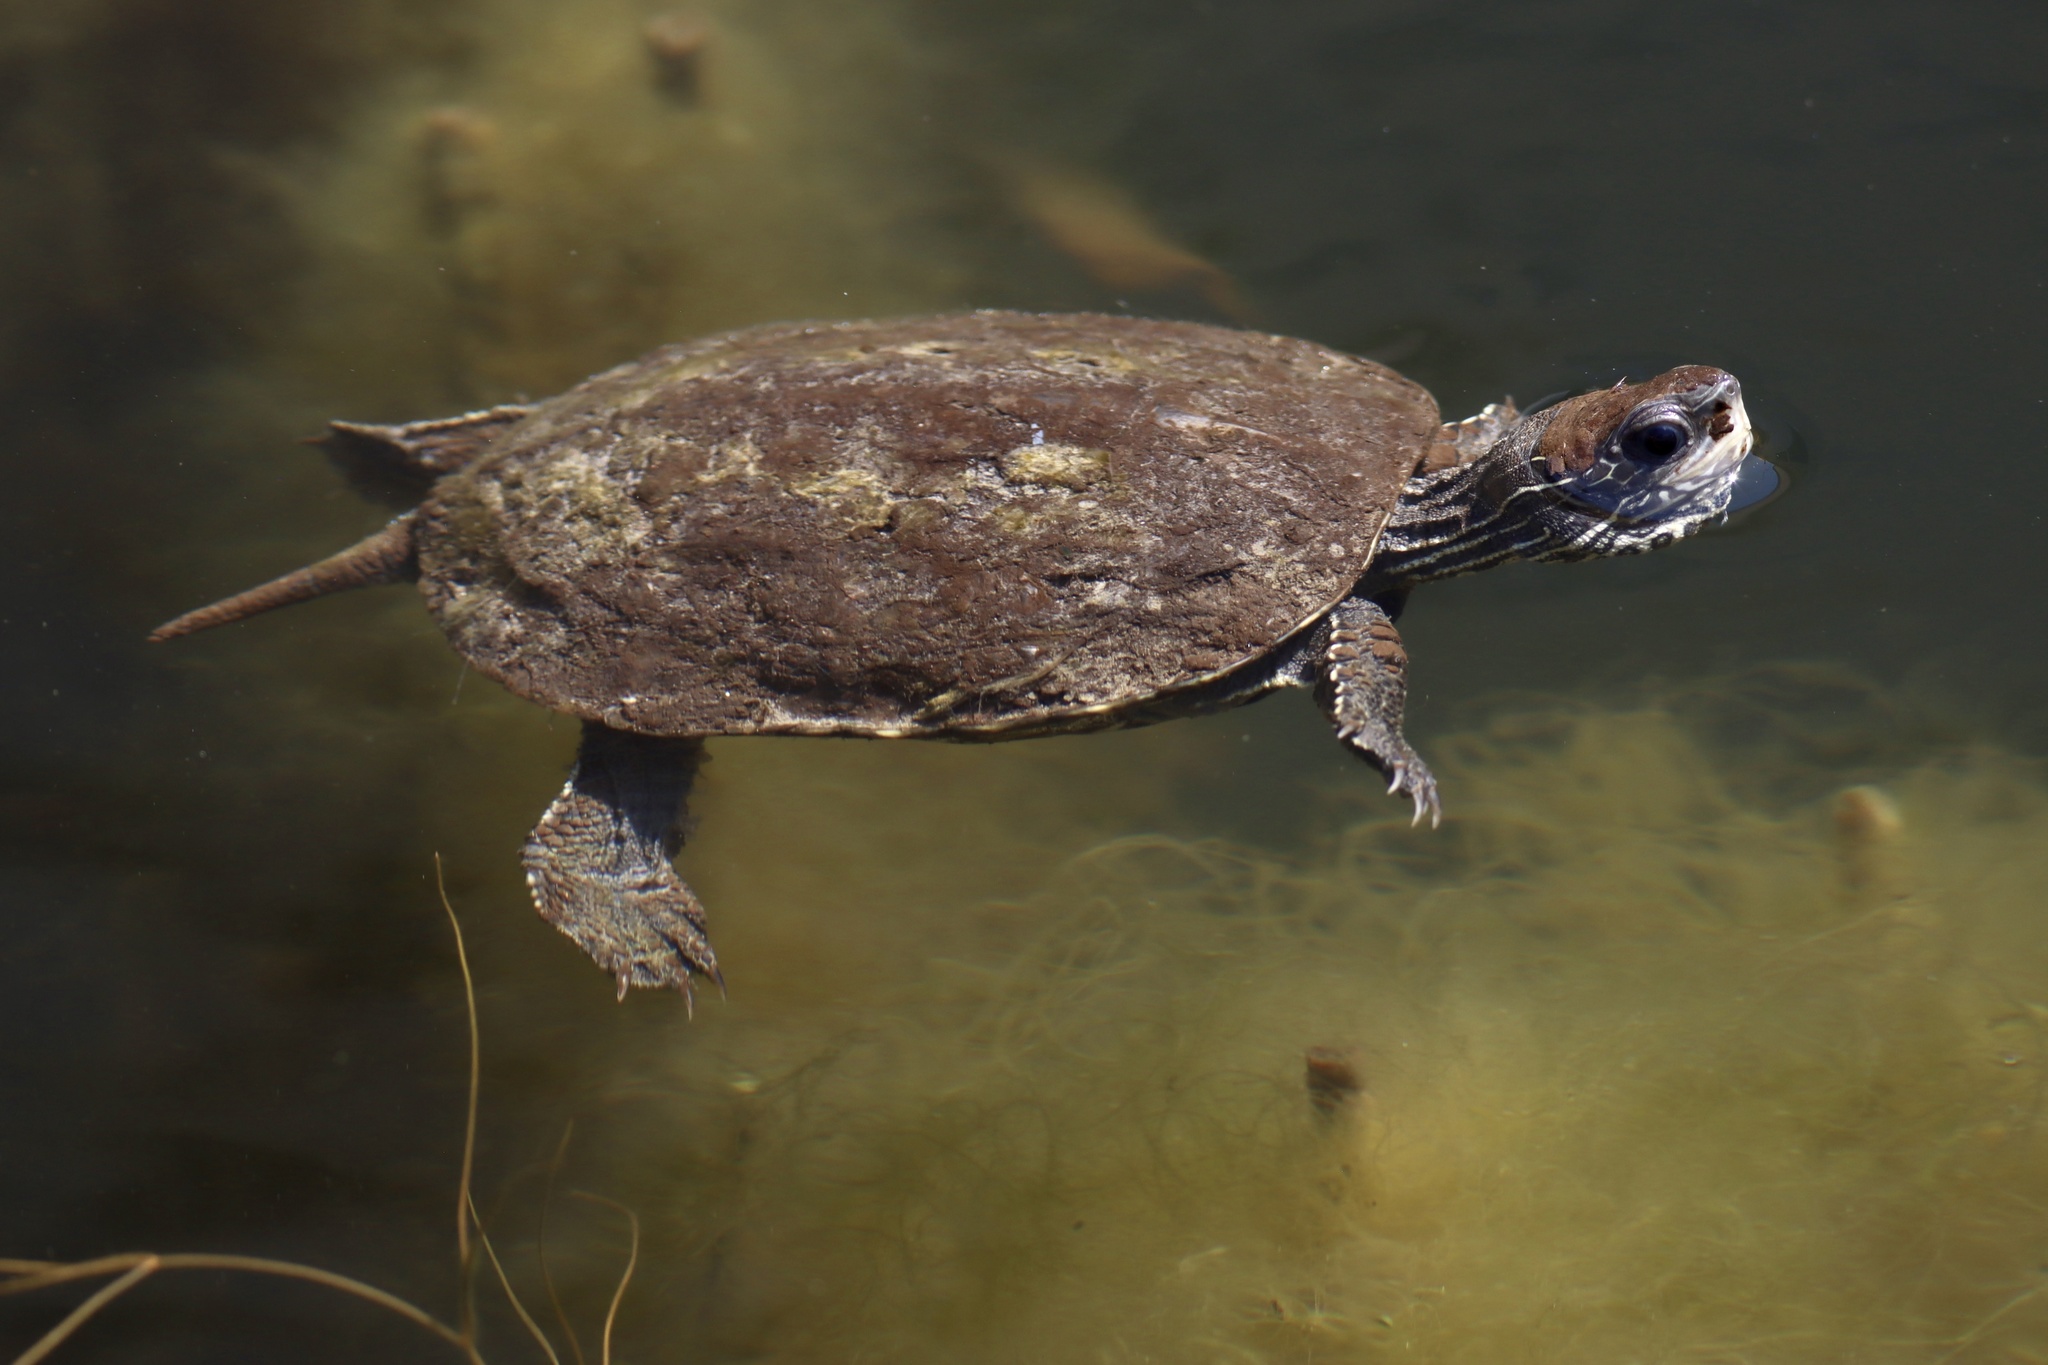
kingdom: Animalia
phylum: Chordata
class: Testudines
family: Geoemydidae
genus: Mauremys
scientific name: Mauremys rivulata
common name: Western caspian turtle
